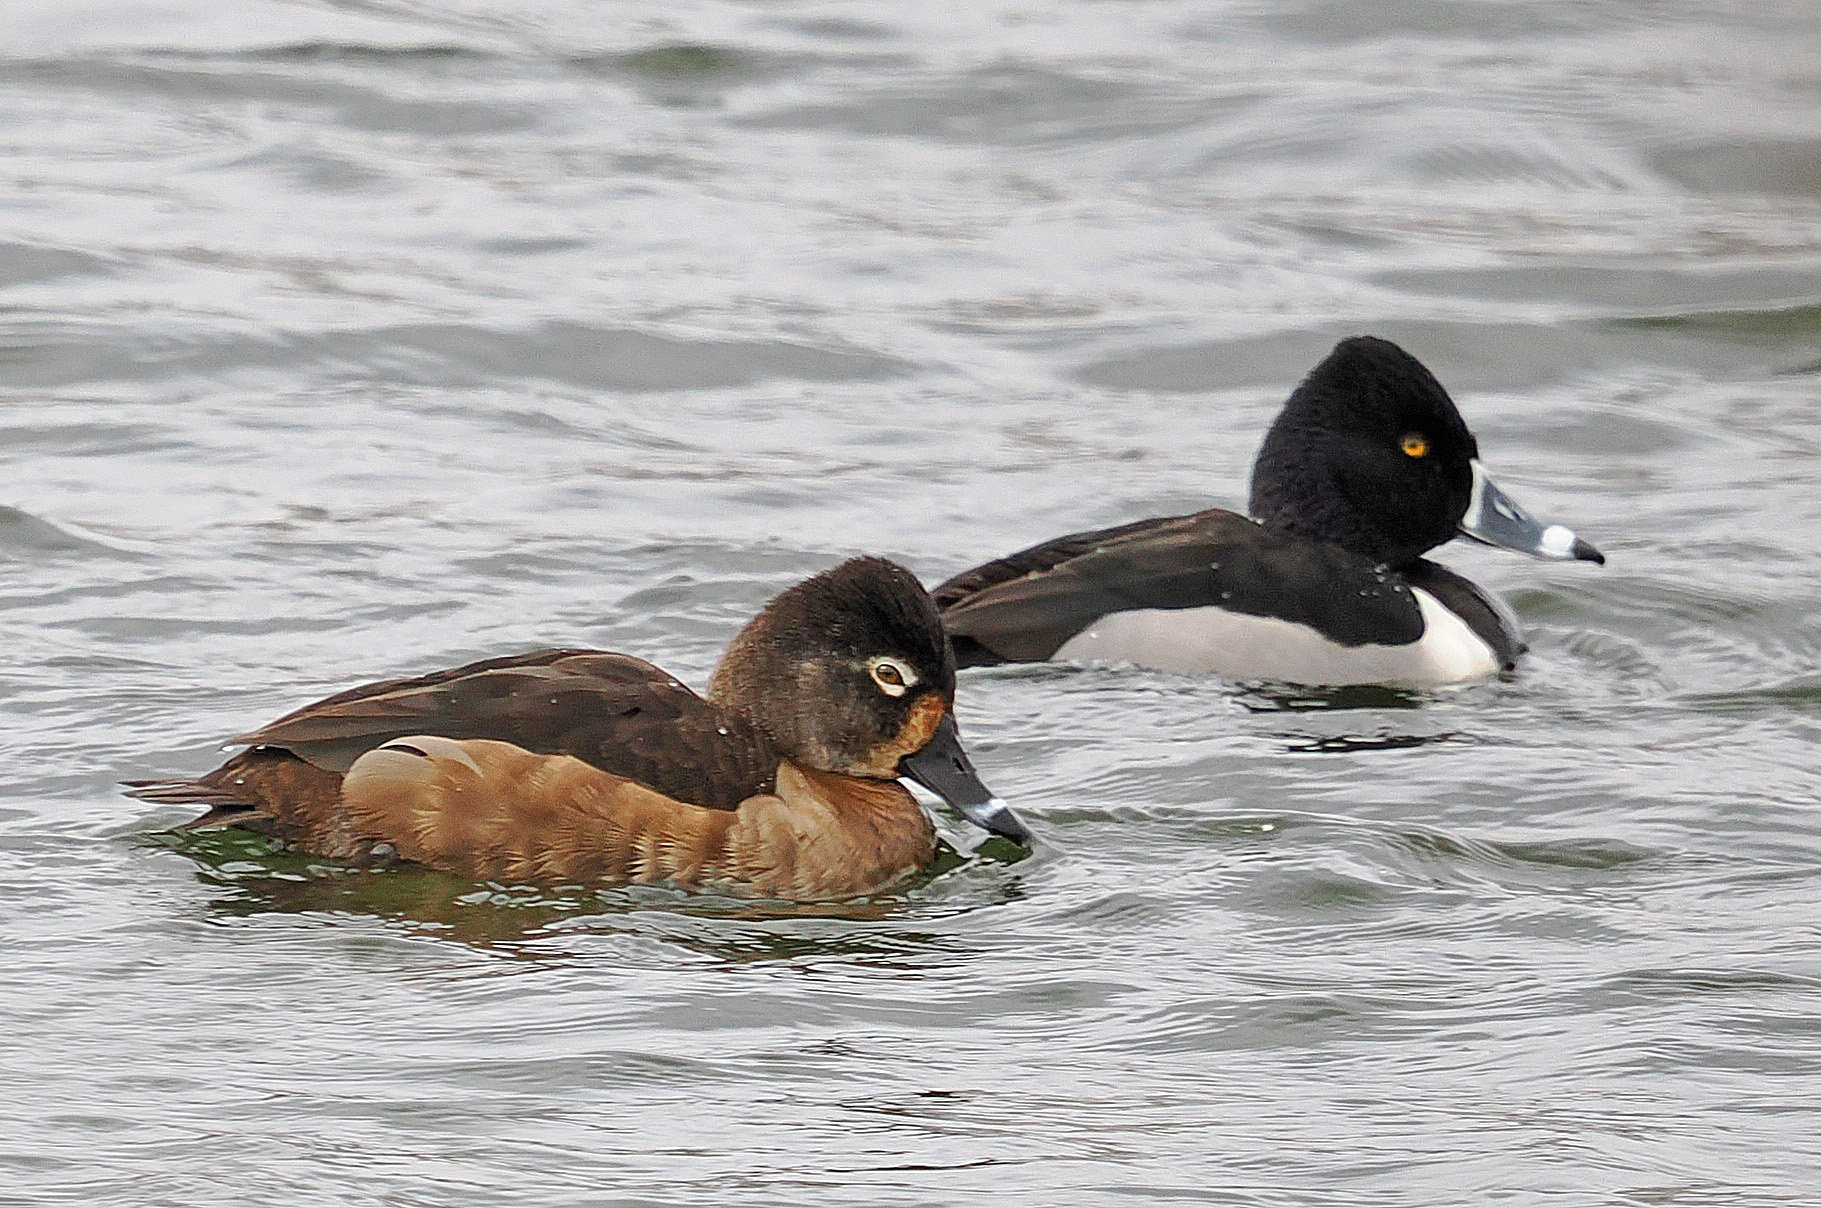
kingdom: Animalia
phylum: Chordata
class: Aves
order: Anseriformes
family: Anatidae
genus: Aythya
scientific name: Aythya collaris
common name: Ring-necked duck
